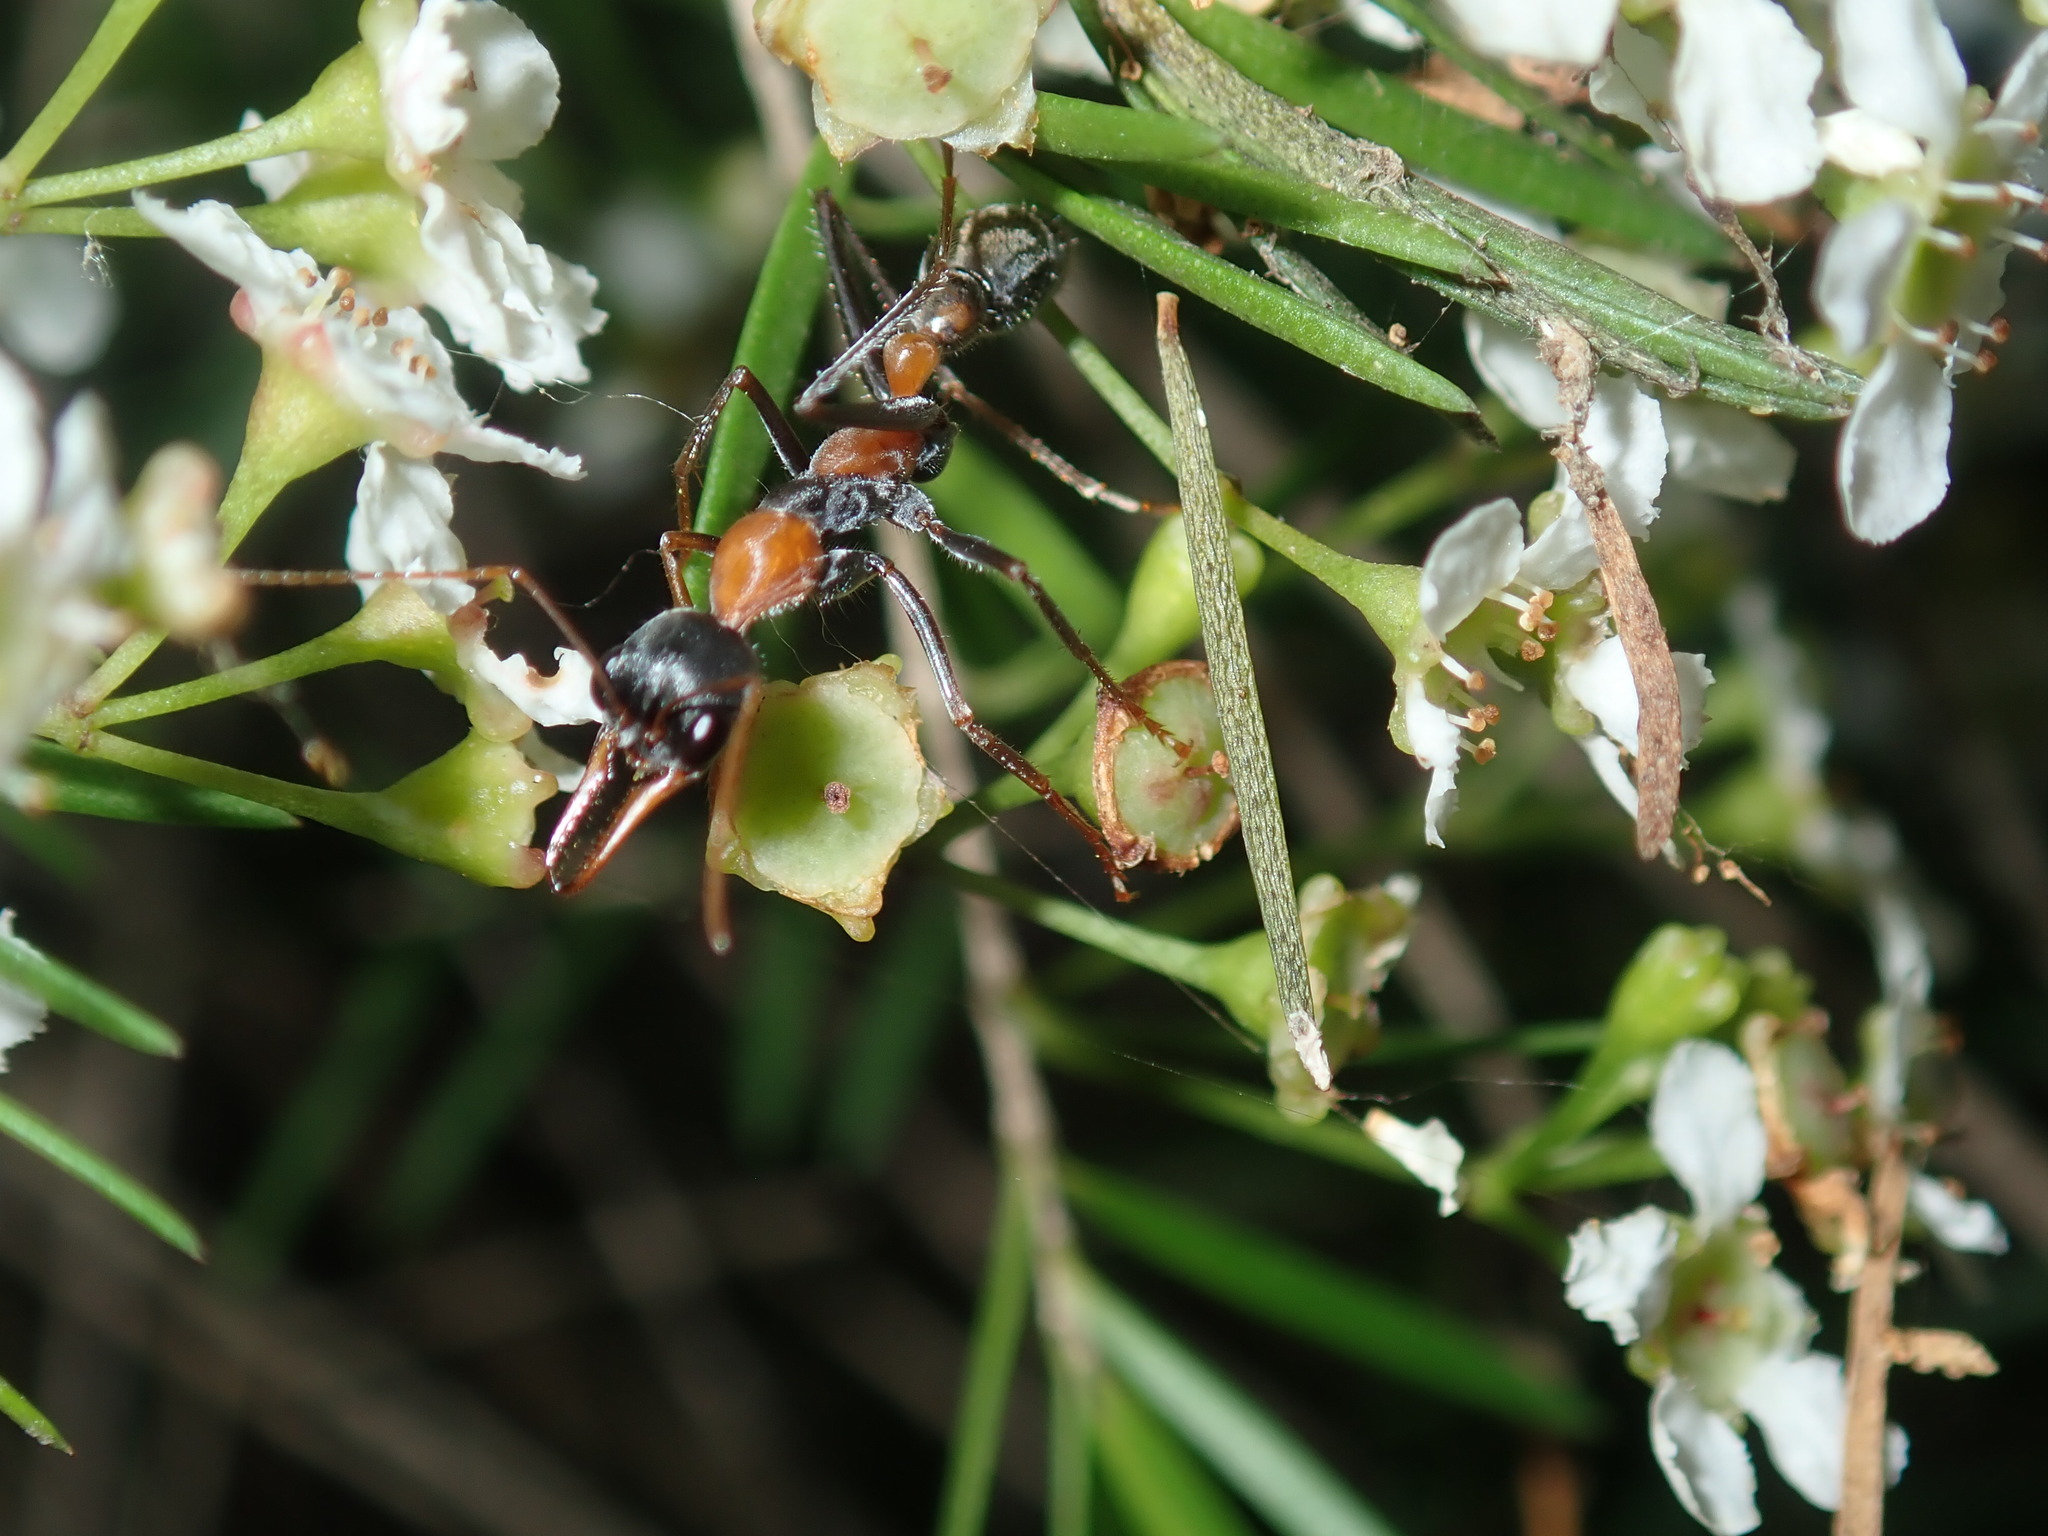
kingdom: Animalia
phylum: Arthropoda
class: Insecta
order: Hymenoptera
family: Formicidae
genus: Myrmecia
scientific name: Myrmecia nigrocincta
